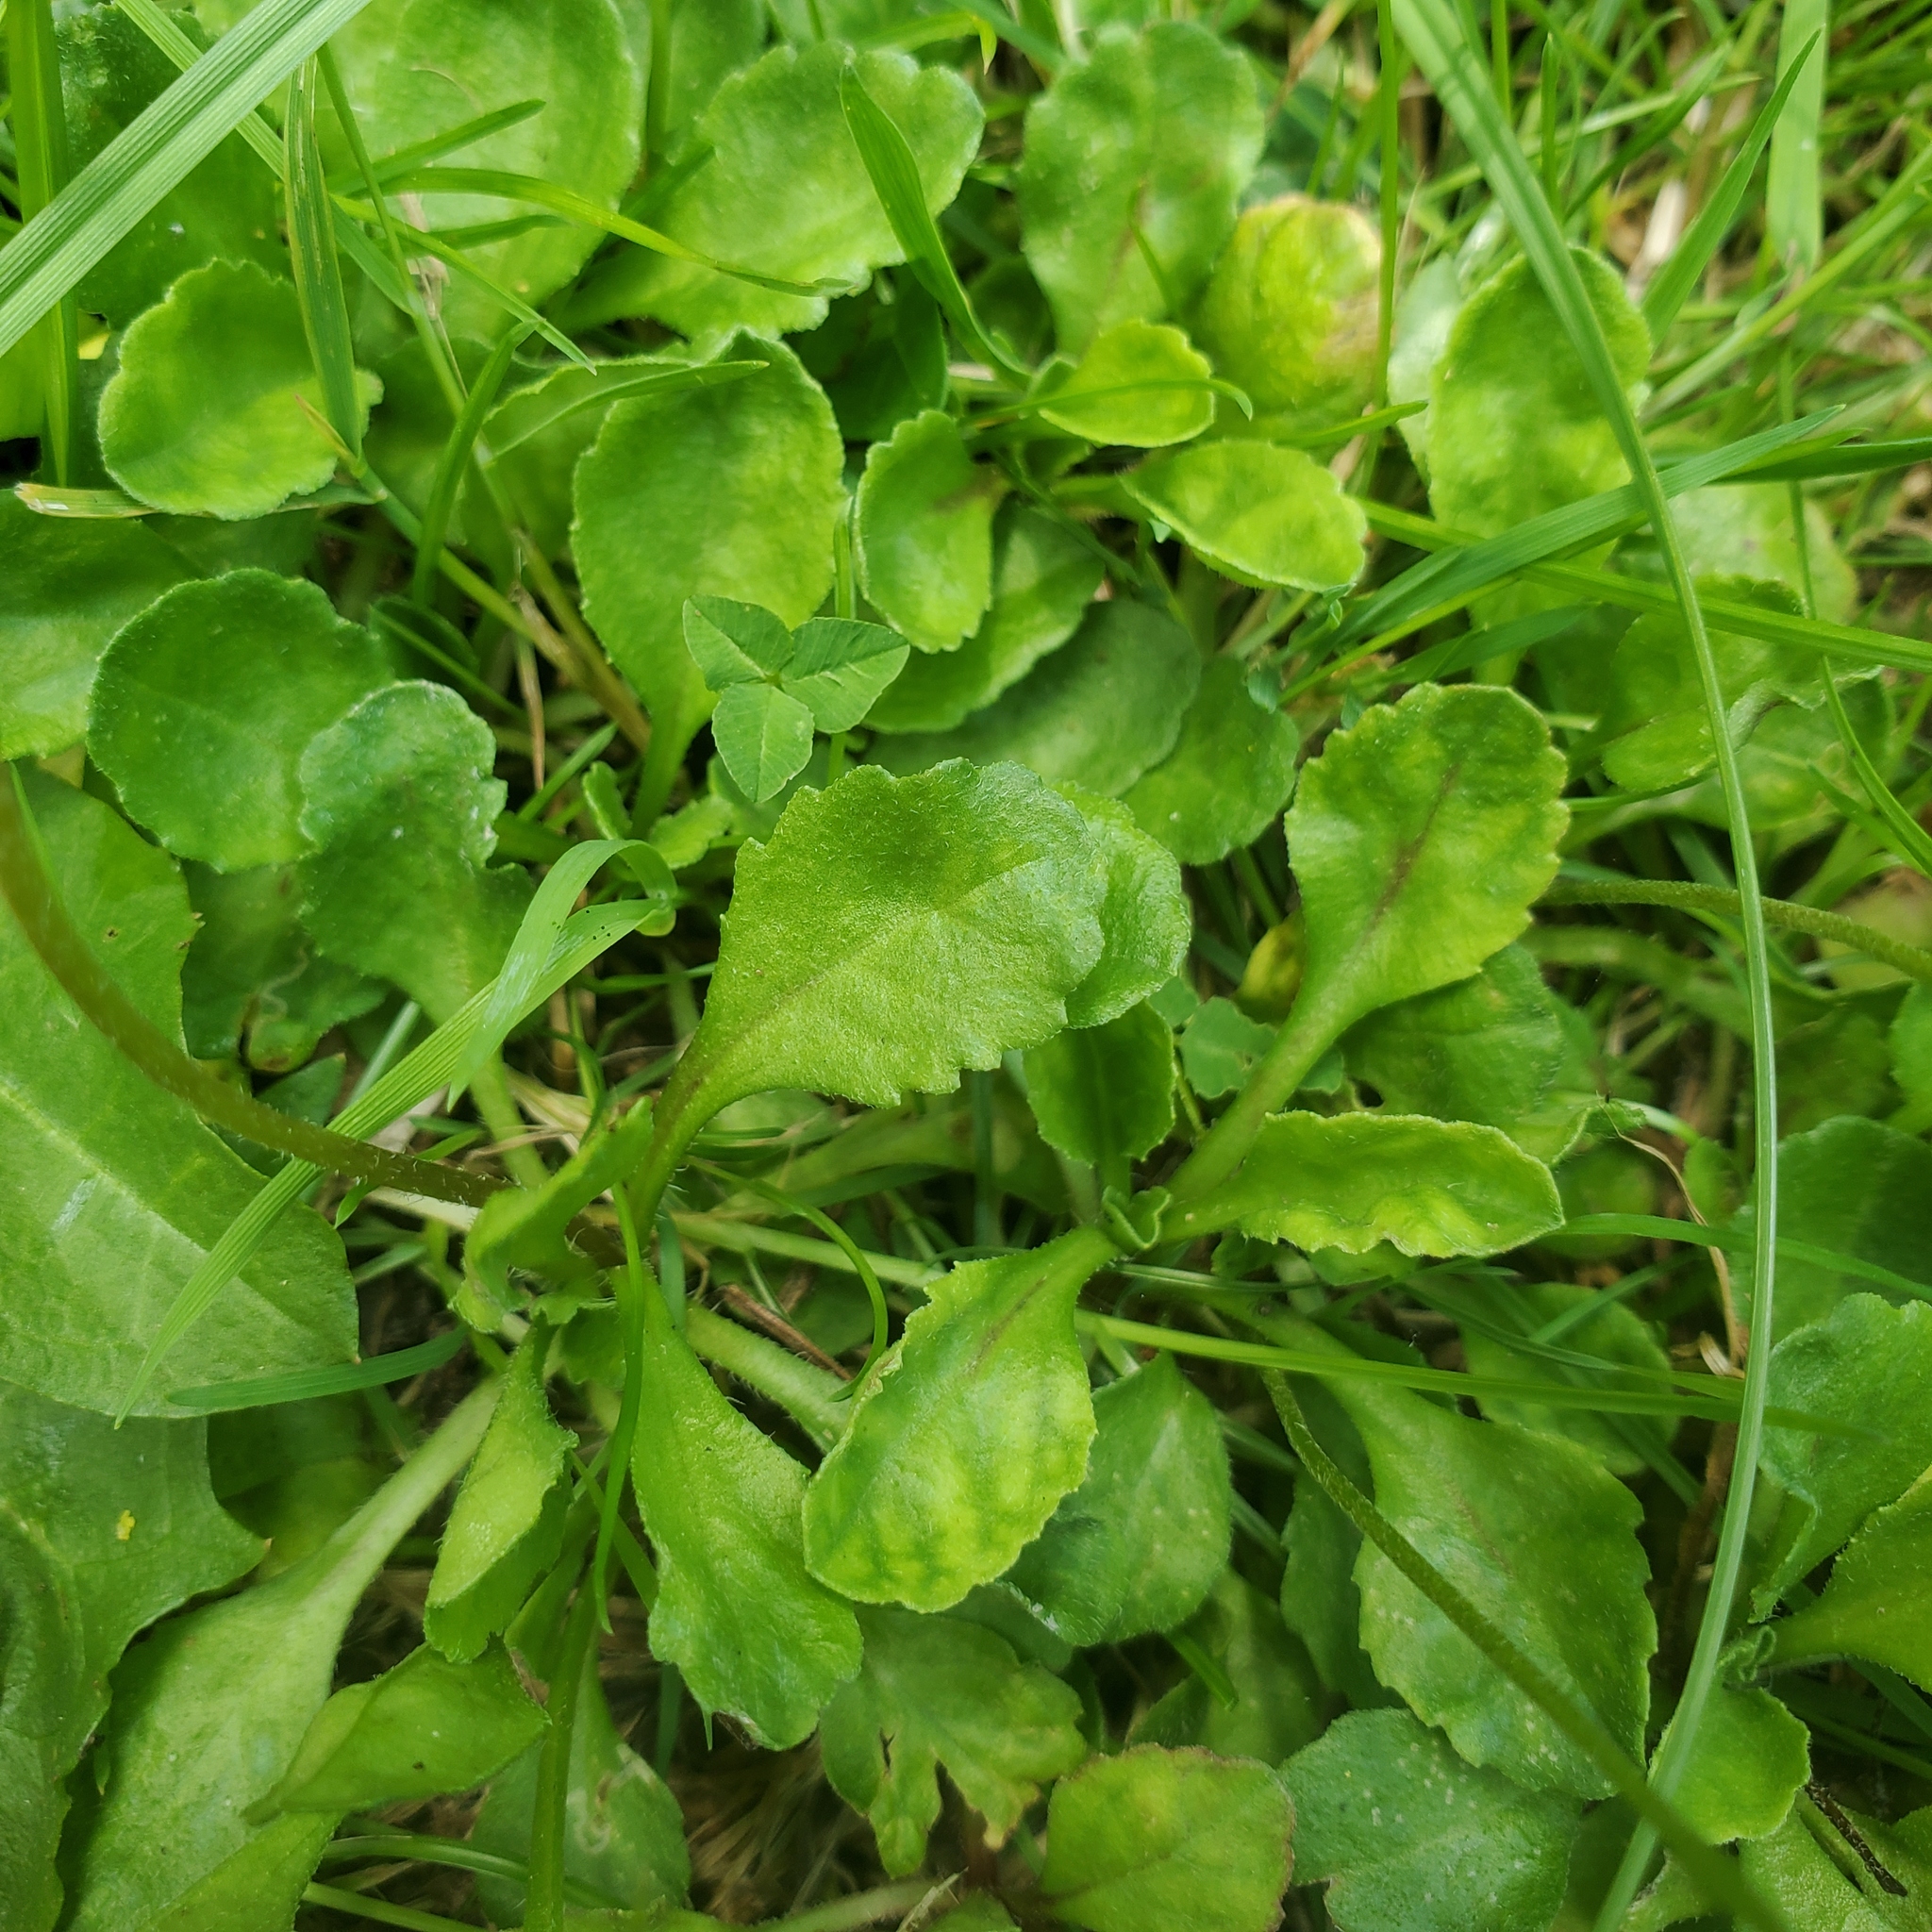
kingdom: Plantae
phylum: Tracheophyta
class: Magnoliopsida
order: Asterales
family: Asteraceae
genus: Bellis
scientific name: Bellis perennis
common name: Lawndaisy
